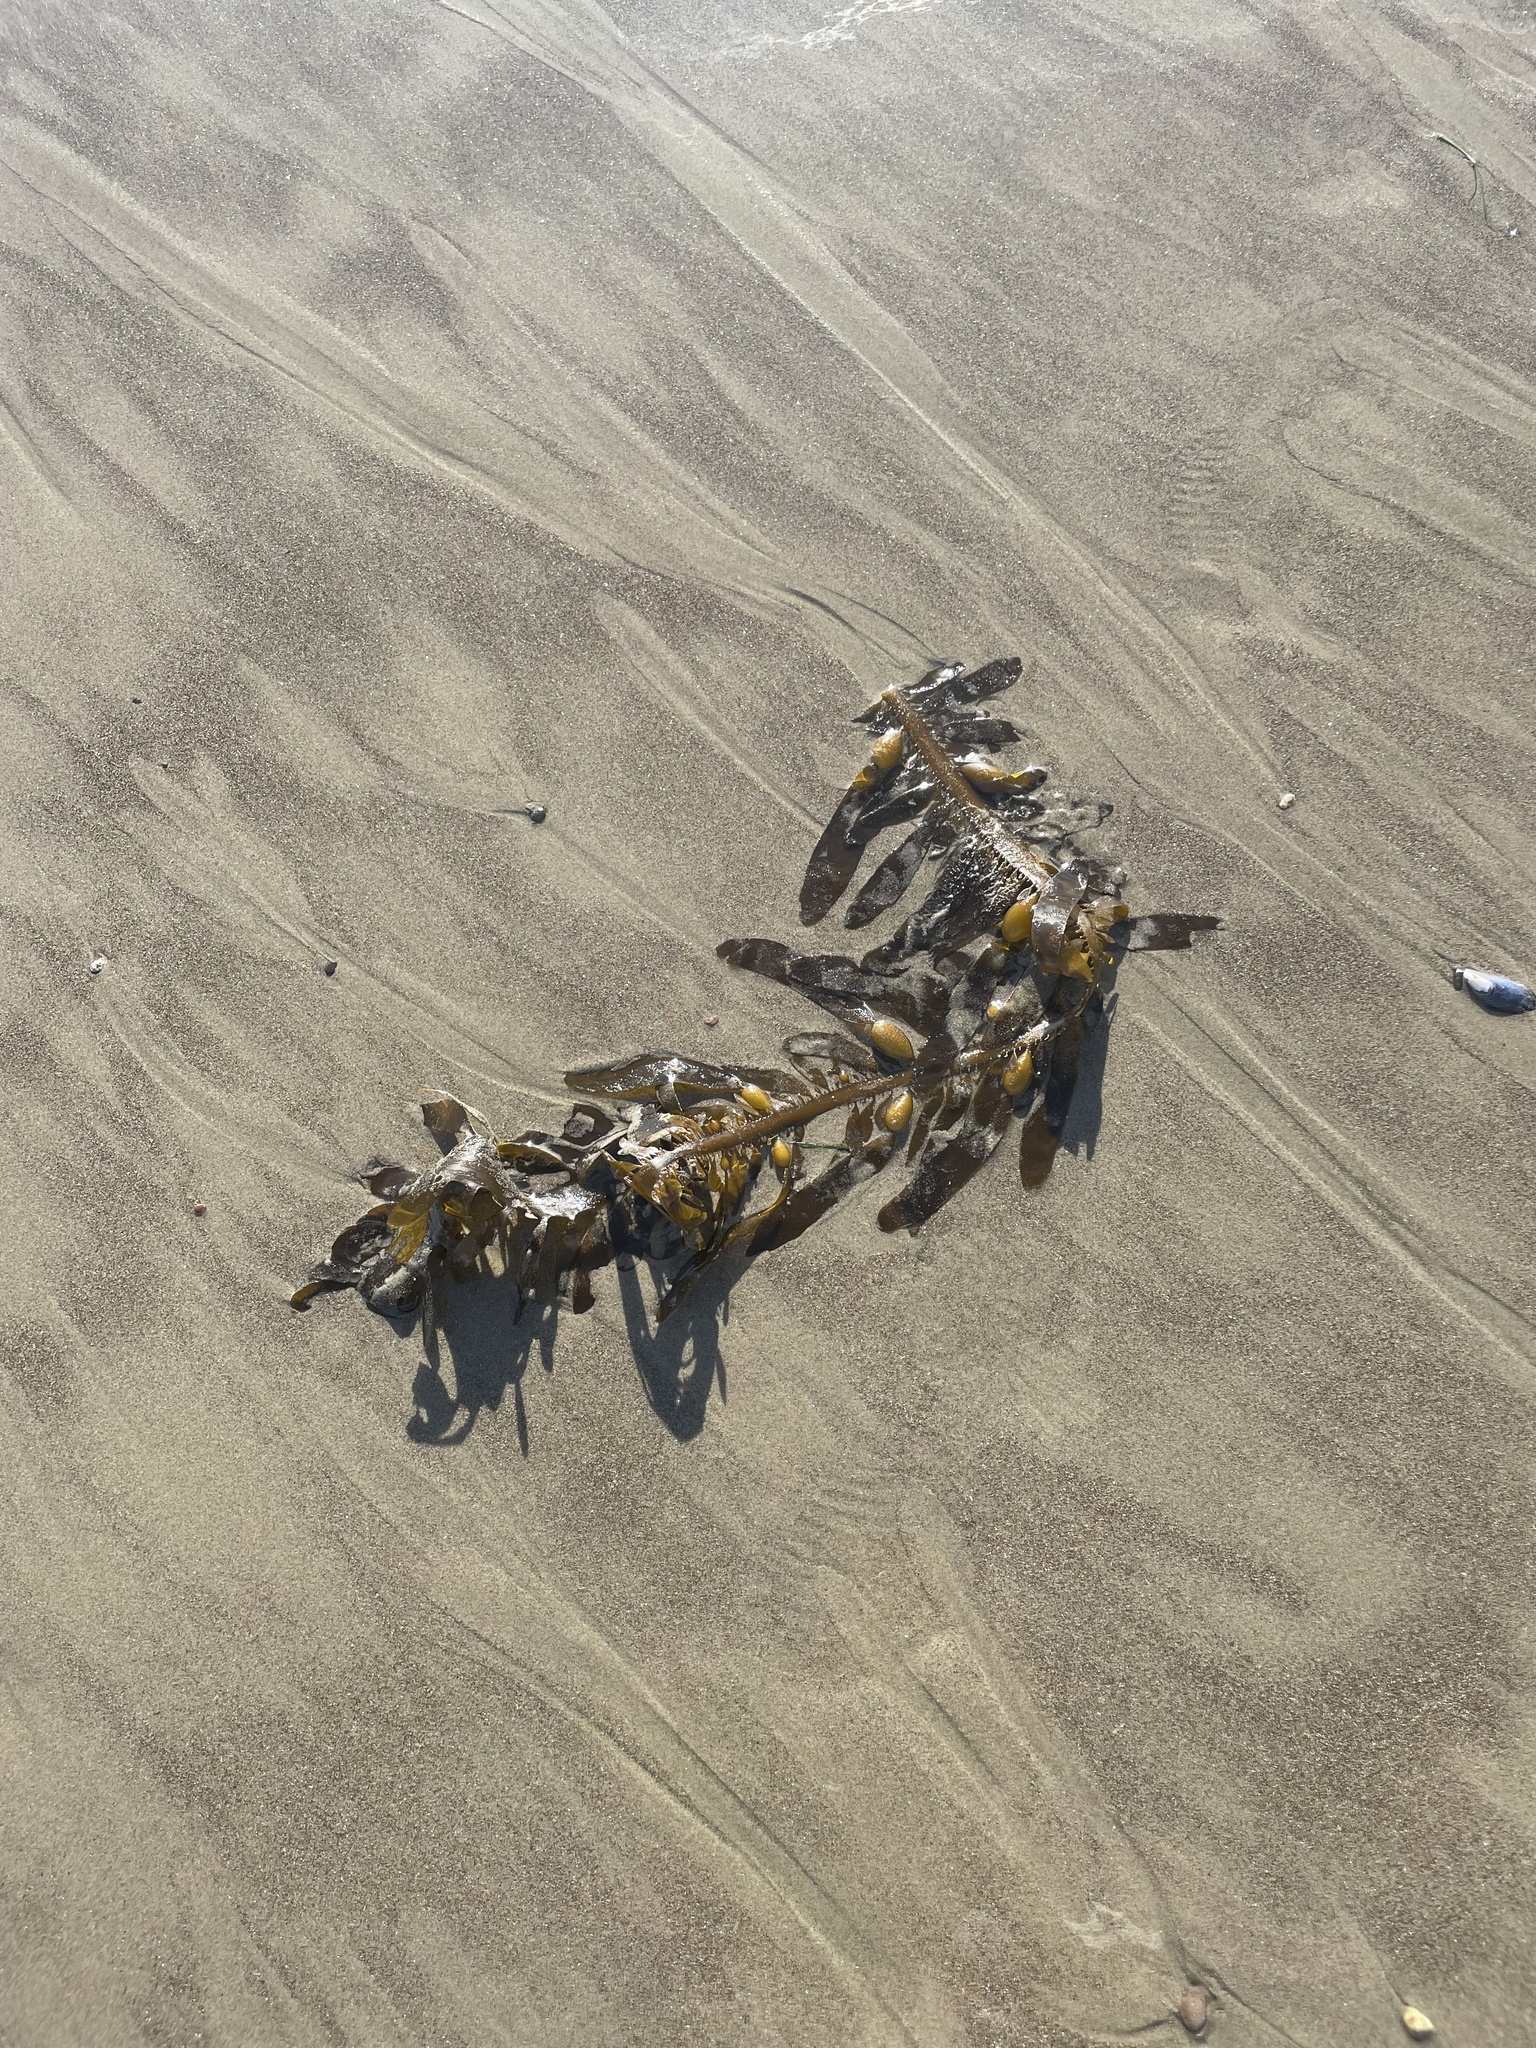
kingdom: Chromista
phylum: Ochrophyta
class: Phaeophyceae
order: Laminariales
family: Lessoniaceae
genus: Egregia
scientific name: Egregia menziesii
